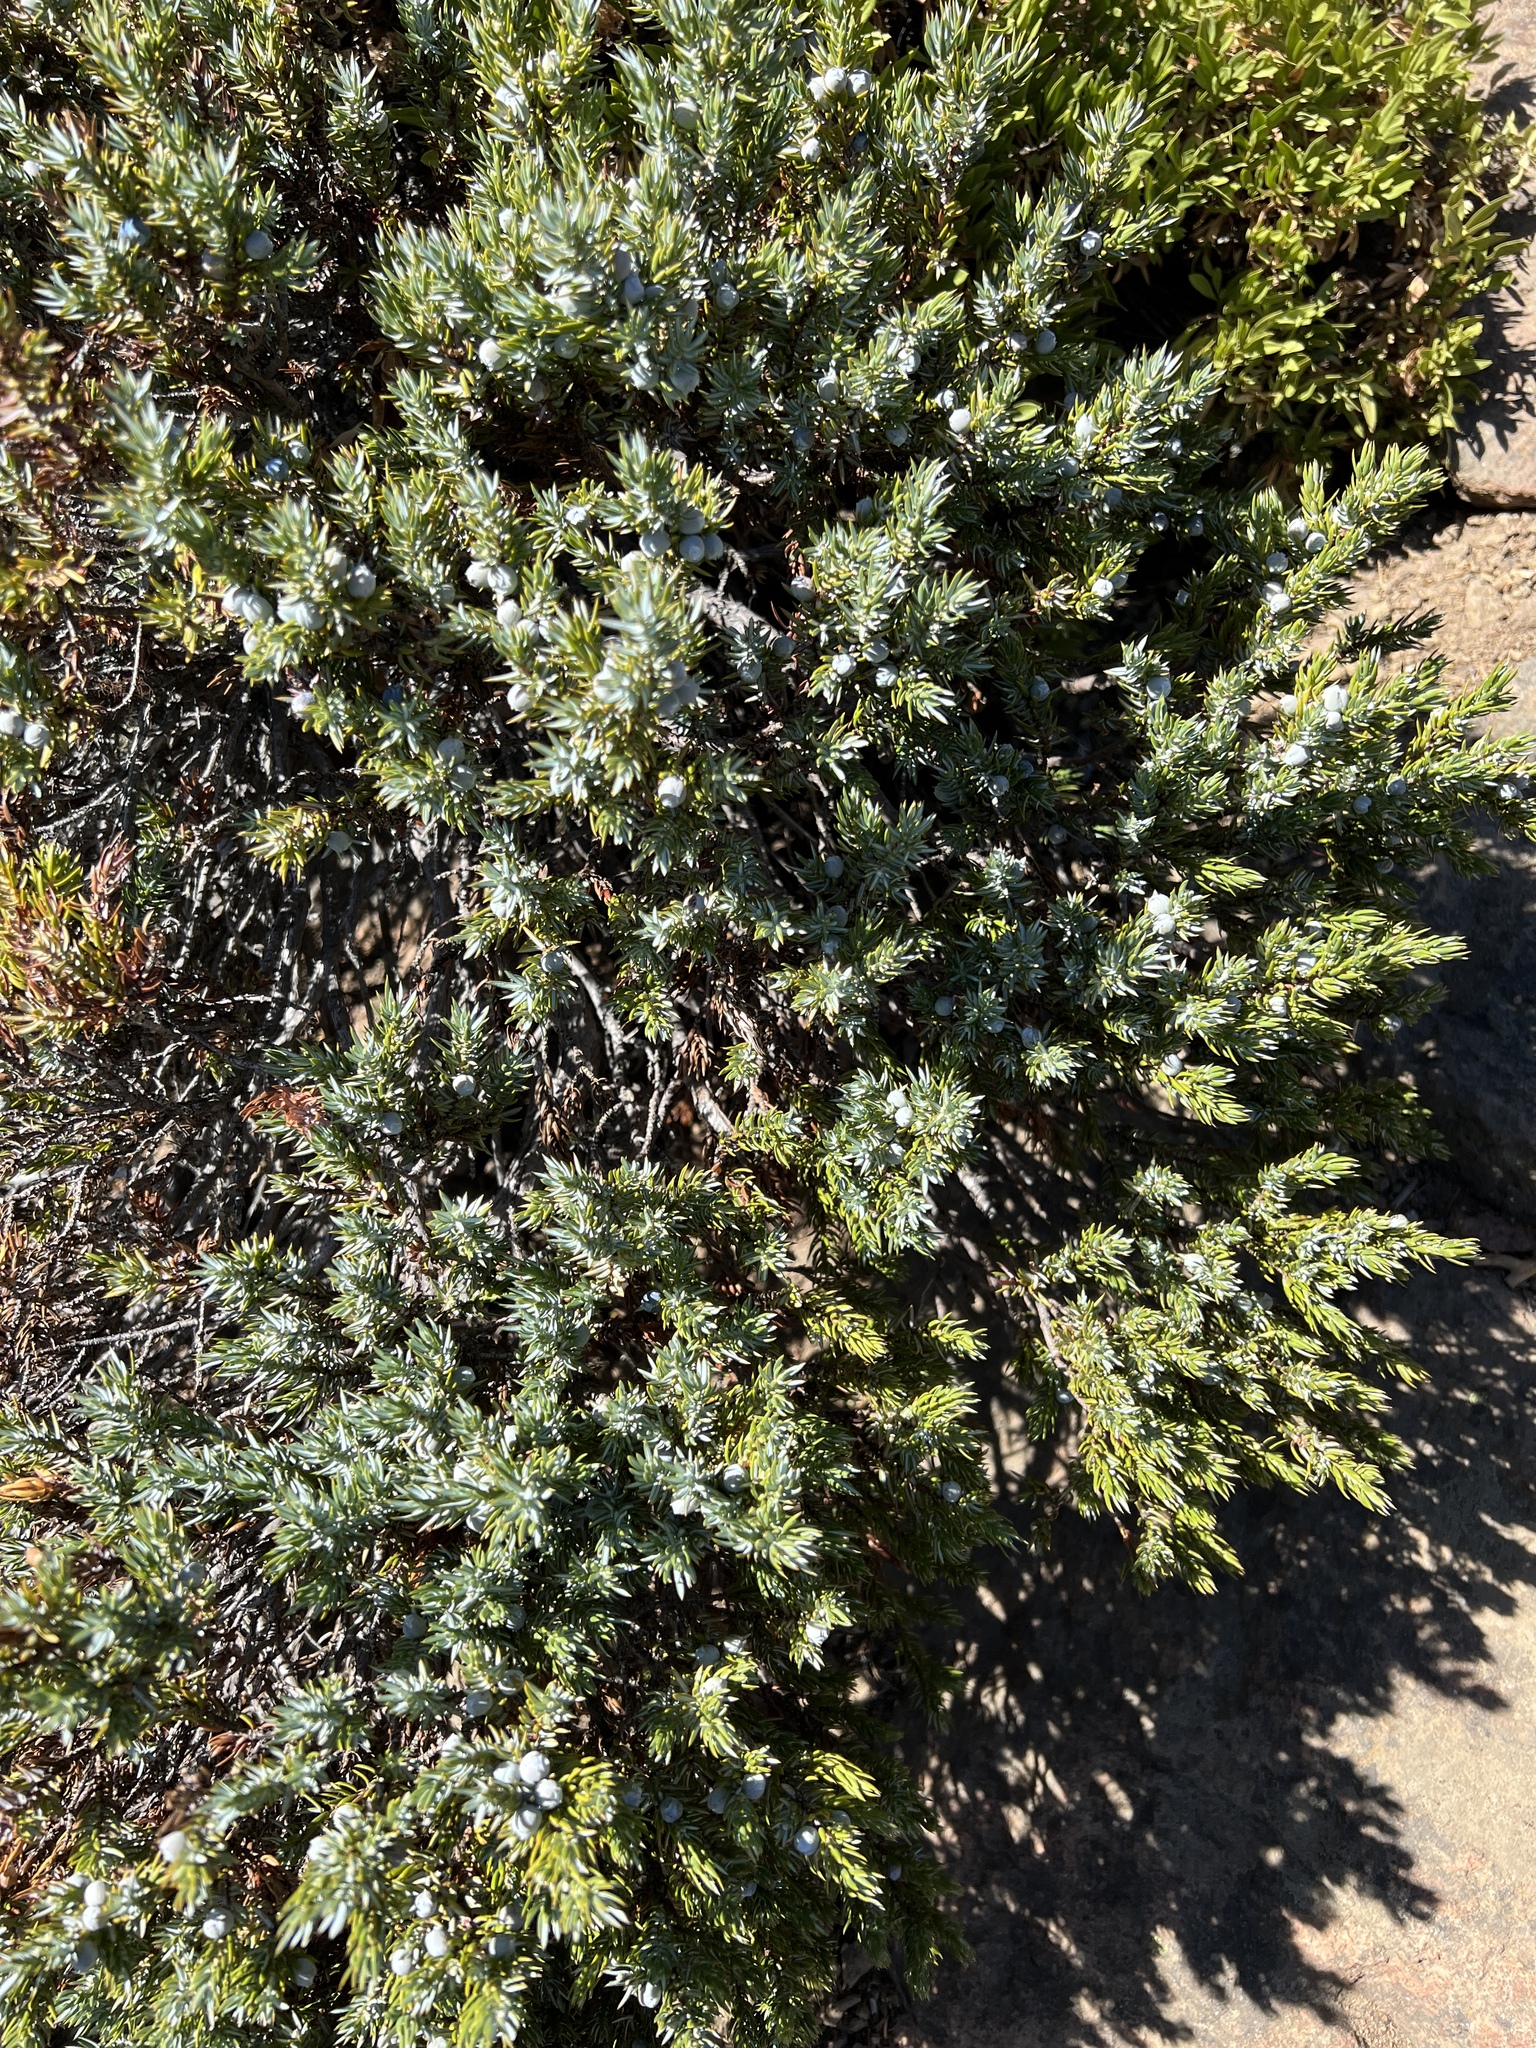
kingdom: Plantae
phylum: Tracheophyta
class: Pinopsida
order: Pinales
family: Cupressaceae
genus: Juniperus
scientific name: Juniperus communis
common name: Common juniper
